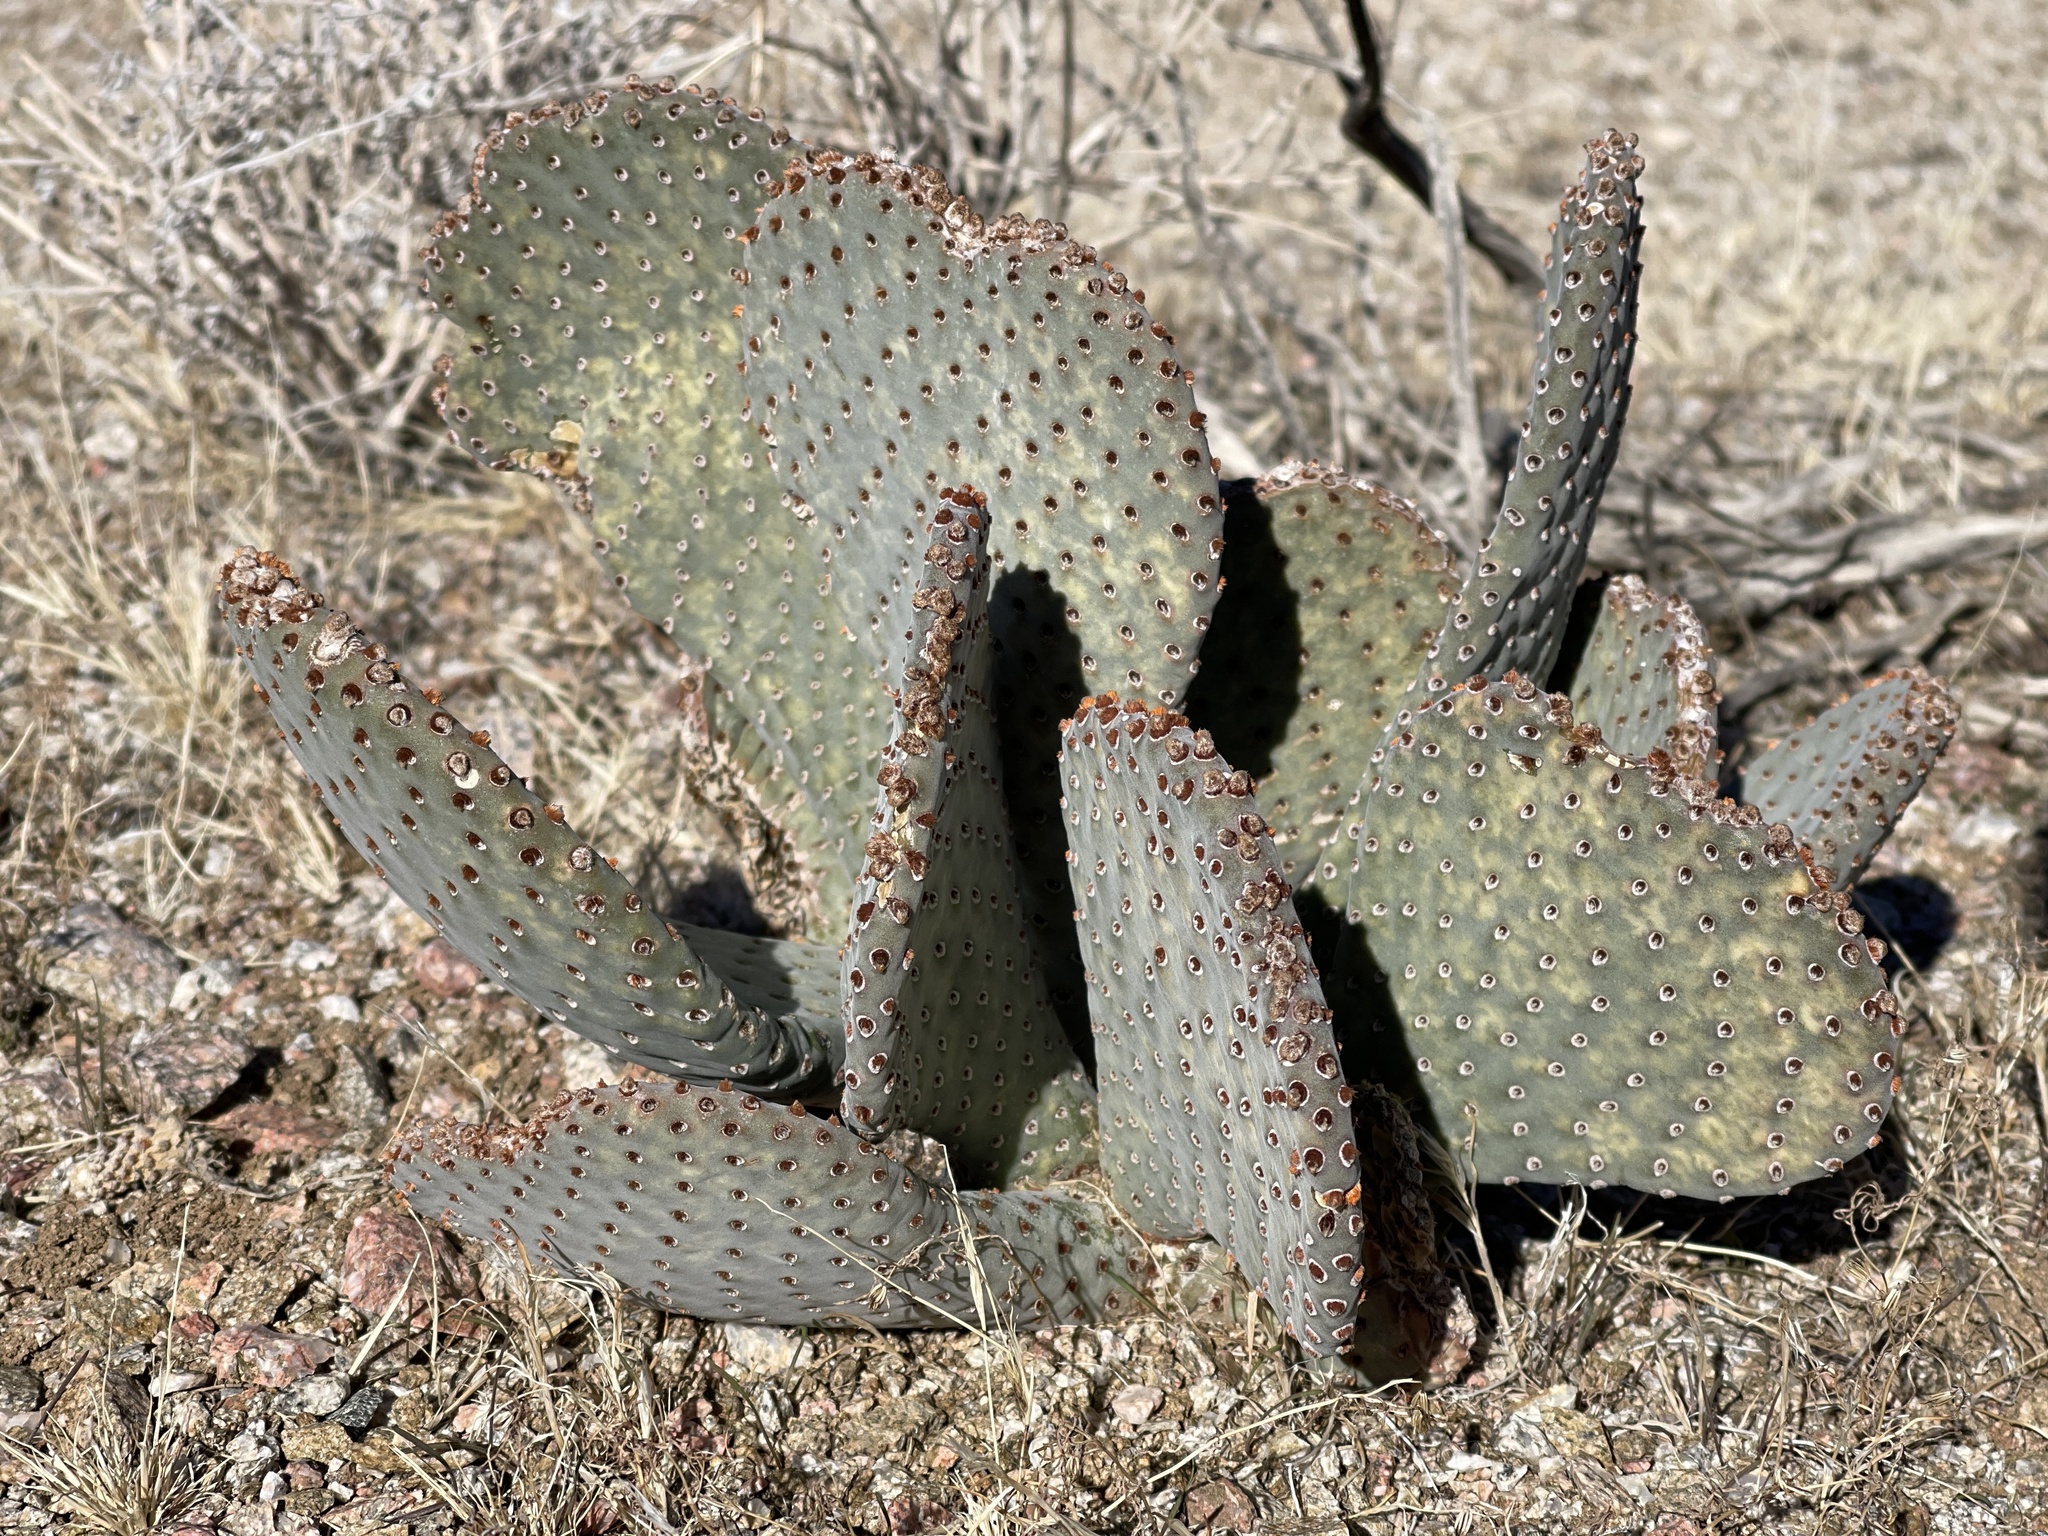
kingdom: Plantae
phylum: Tracheophyta
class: Magnoliopsida
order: Caryophyllales
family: Cactaceae
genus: Opuntia
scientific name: Opuntia basilaris
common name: Beavertail prickly-pear
